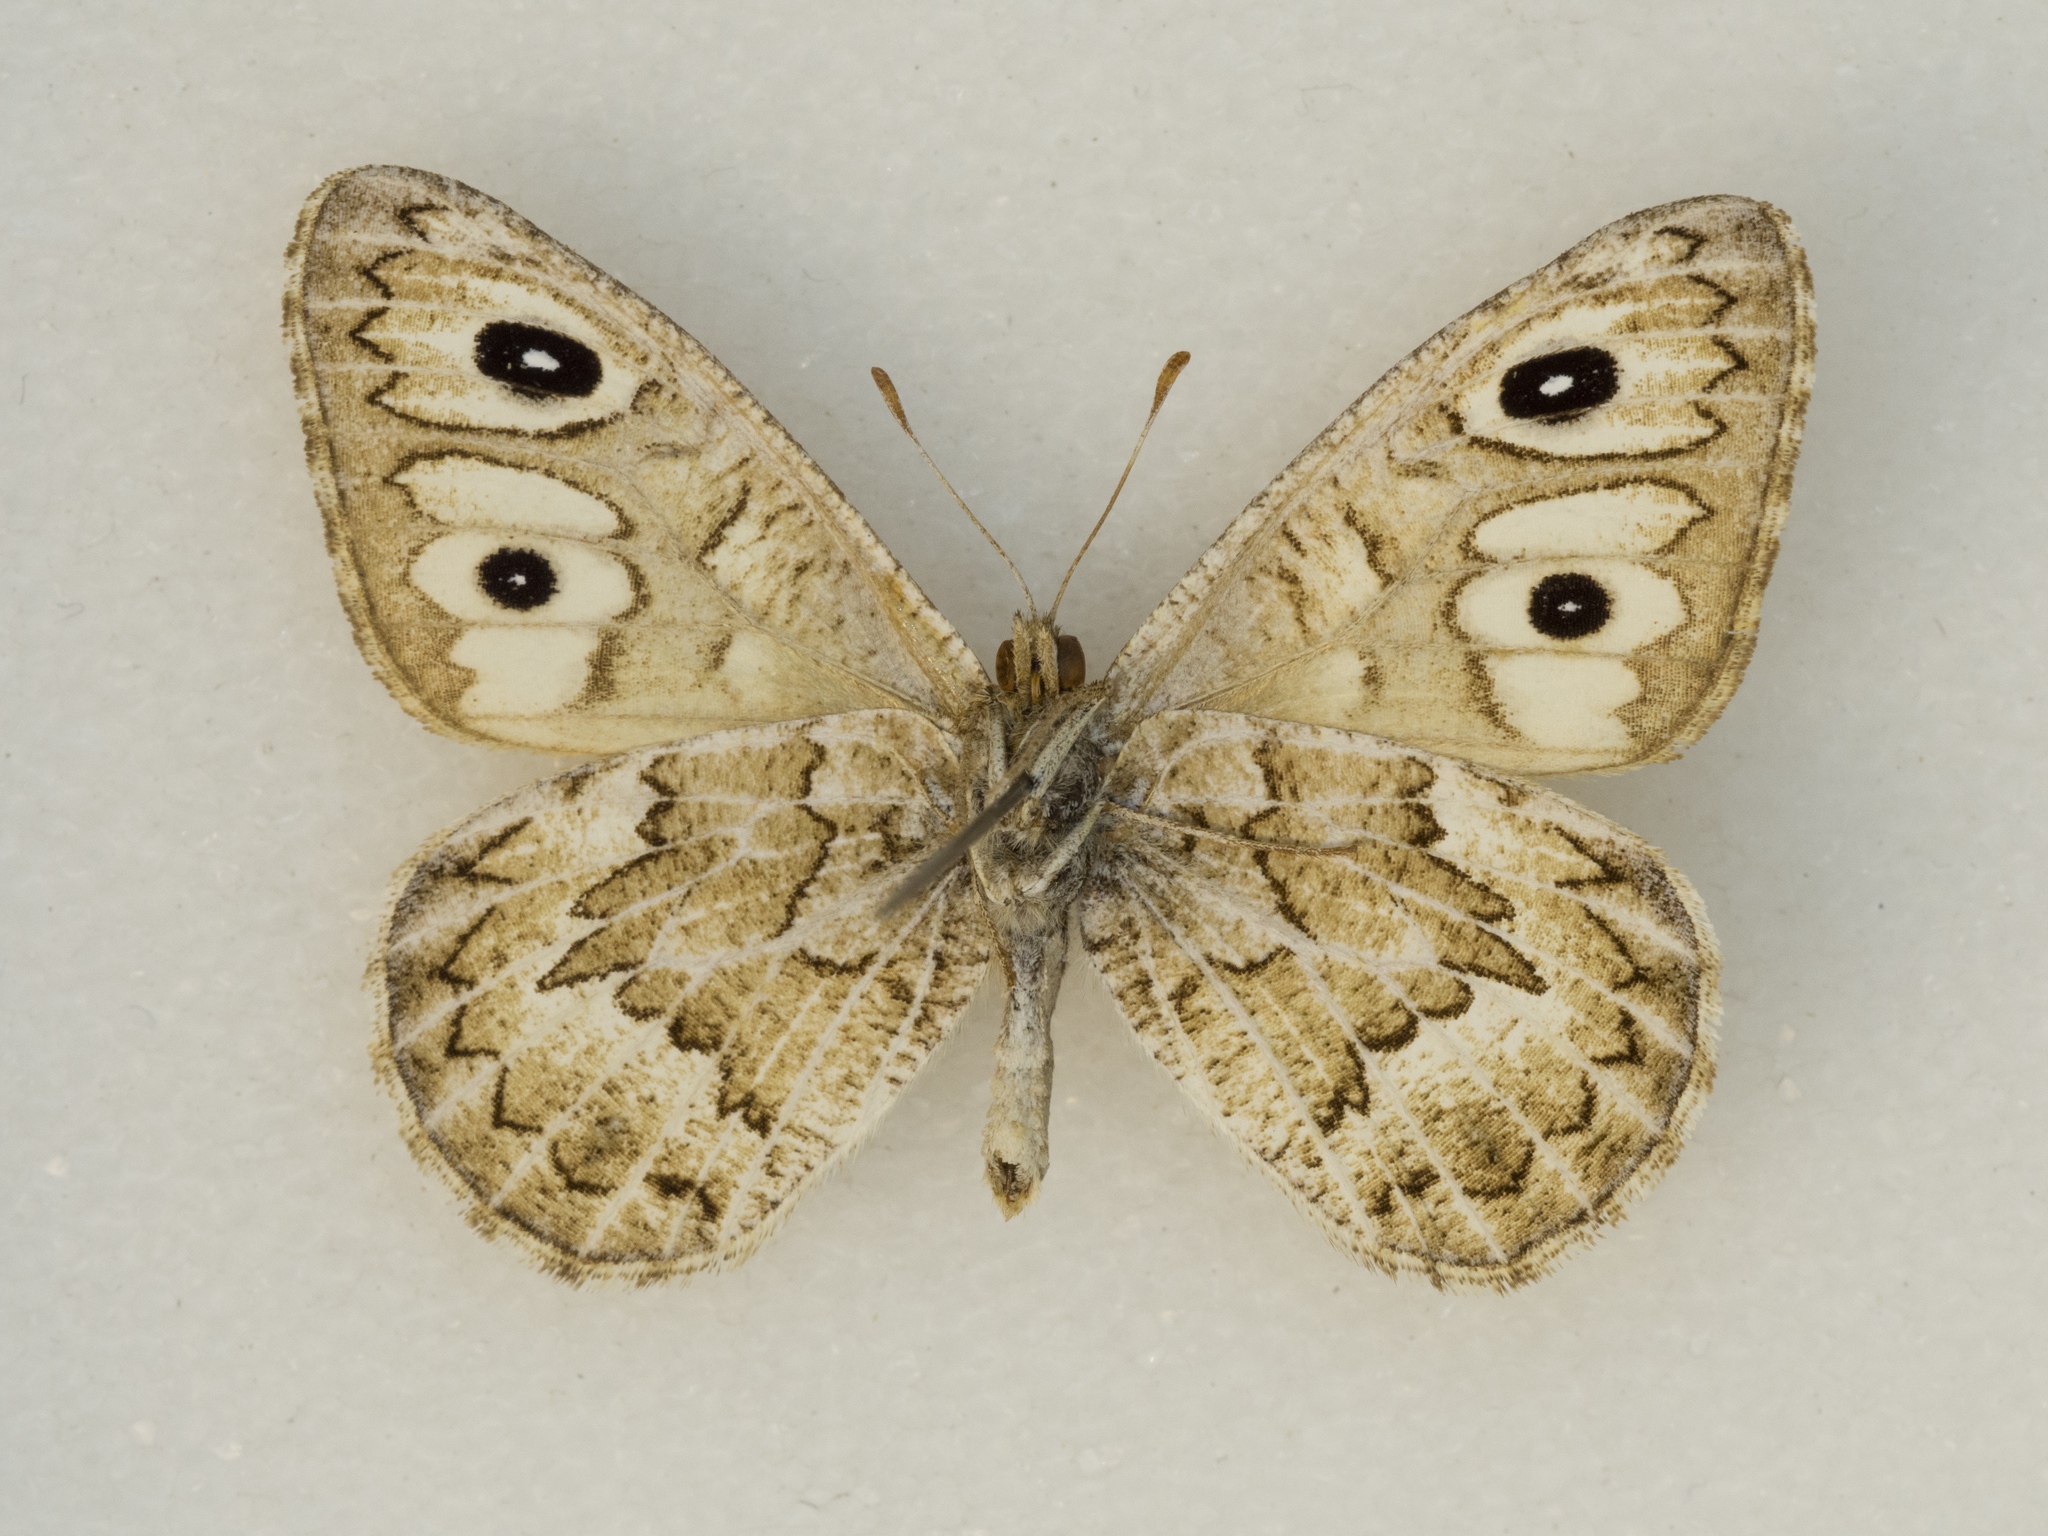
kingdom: Animalia
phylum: Arthropoda
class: Insecta
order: Lepidoptera
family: Nymphalidae
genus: Neominois
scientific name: Neominois ridingsii
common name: Ridings' satyr
